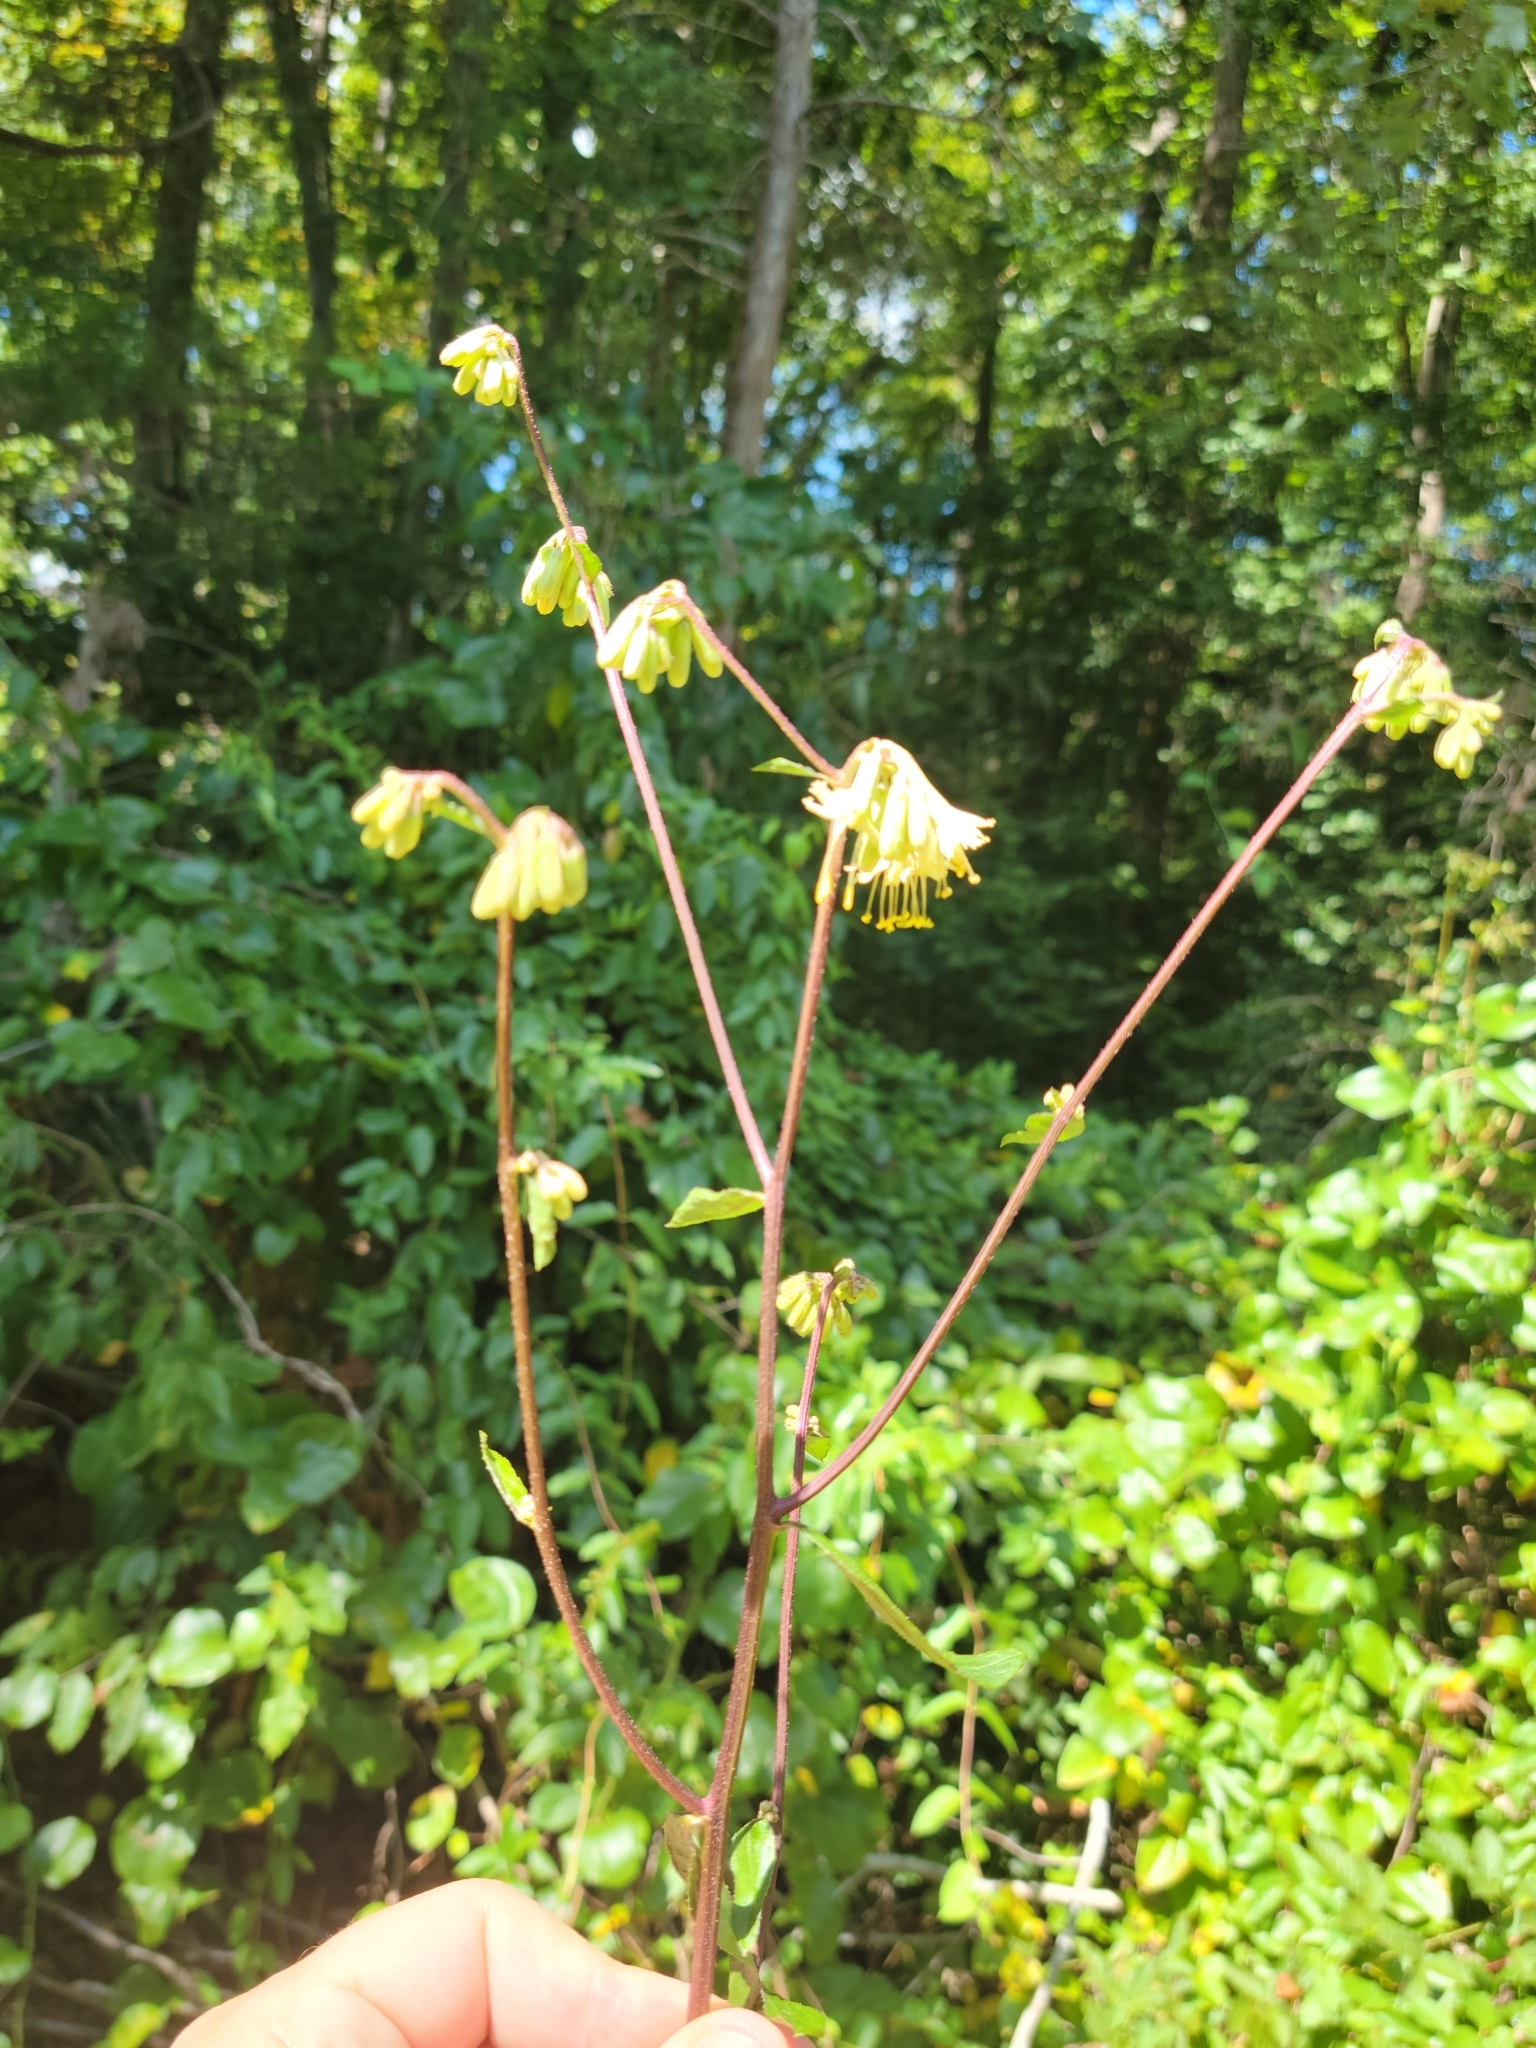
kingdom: Plantae
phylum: Tracheophyta
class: Magnoliopsida
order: Asterales
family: Asteraceae
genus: Nabalus
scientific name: Nabalus serpentarius
